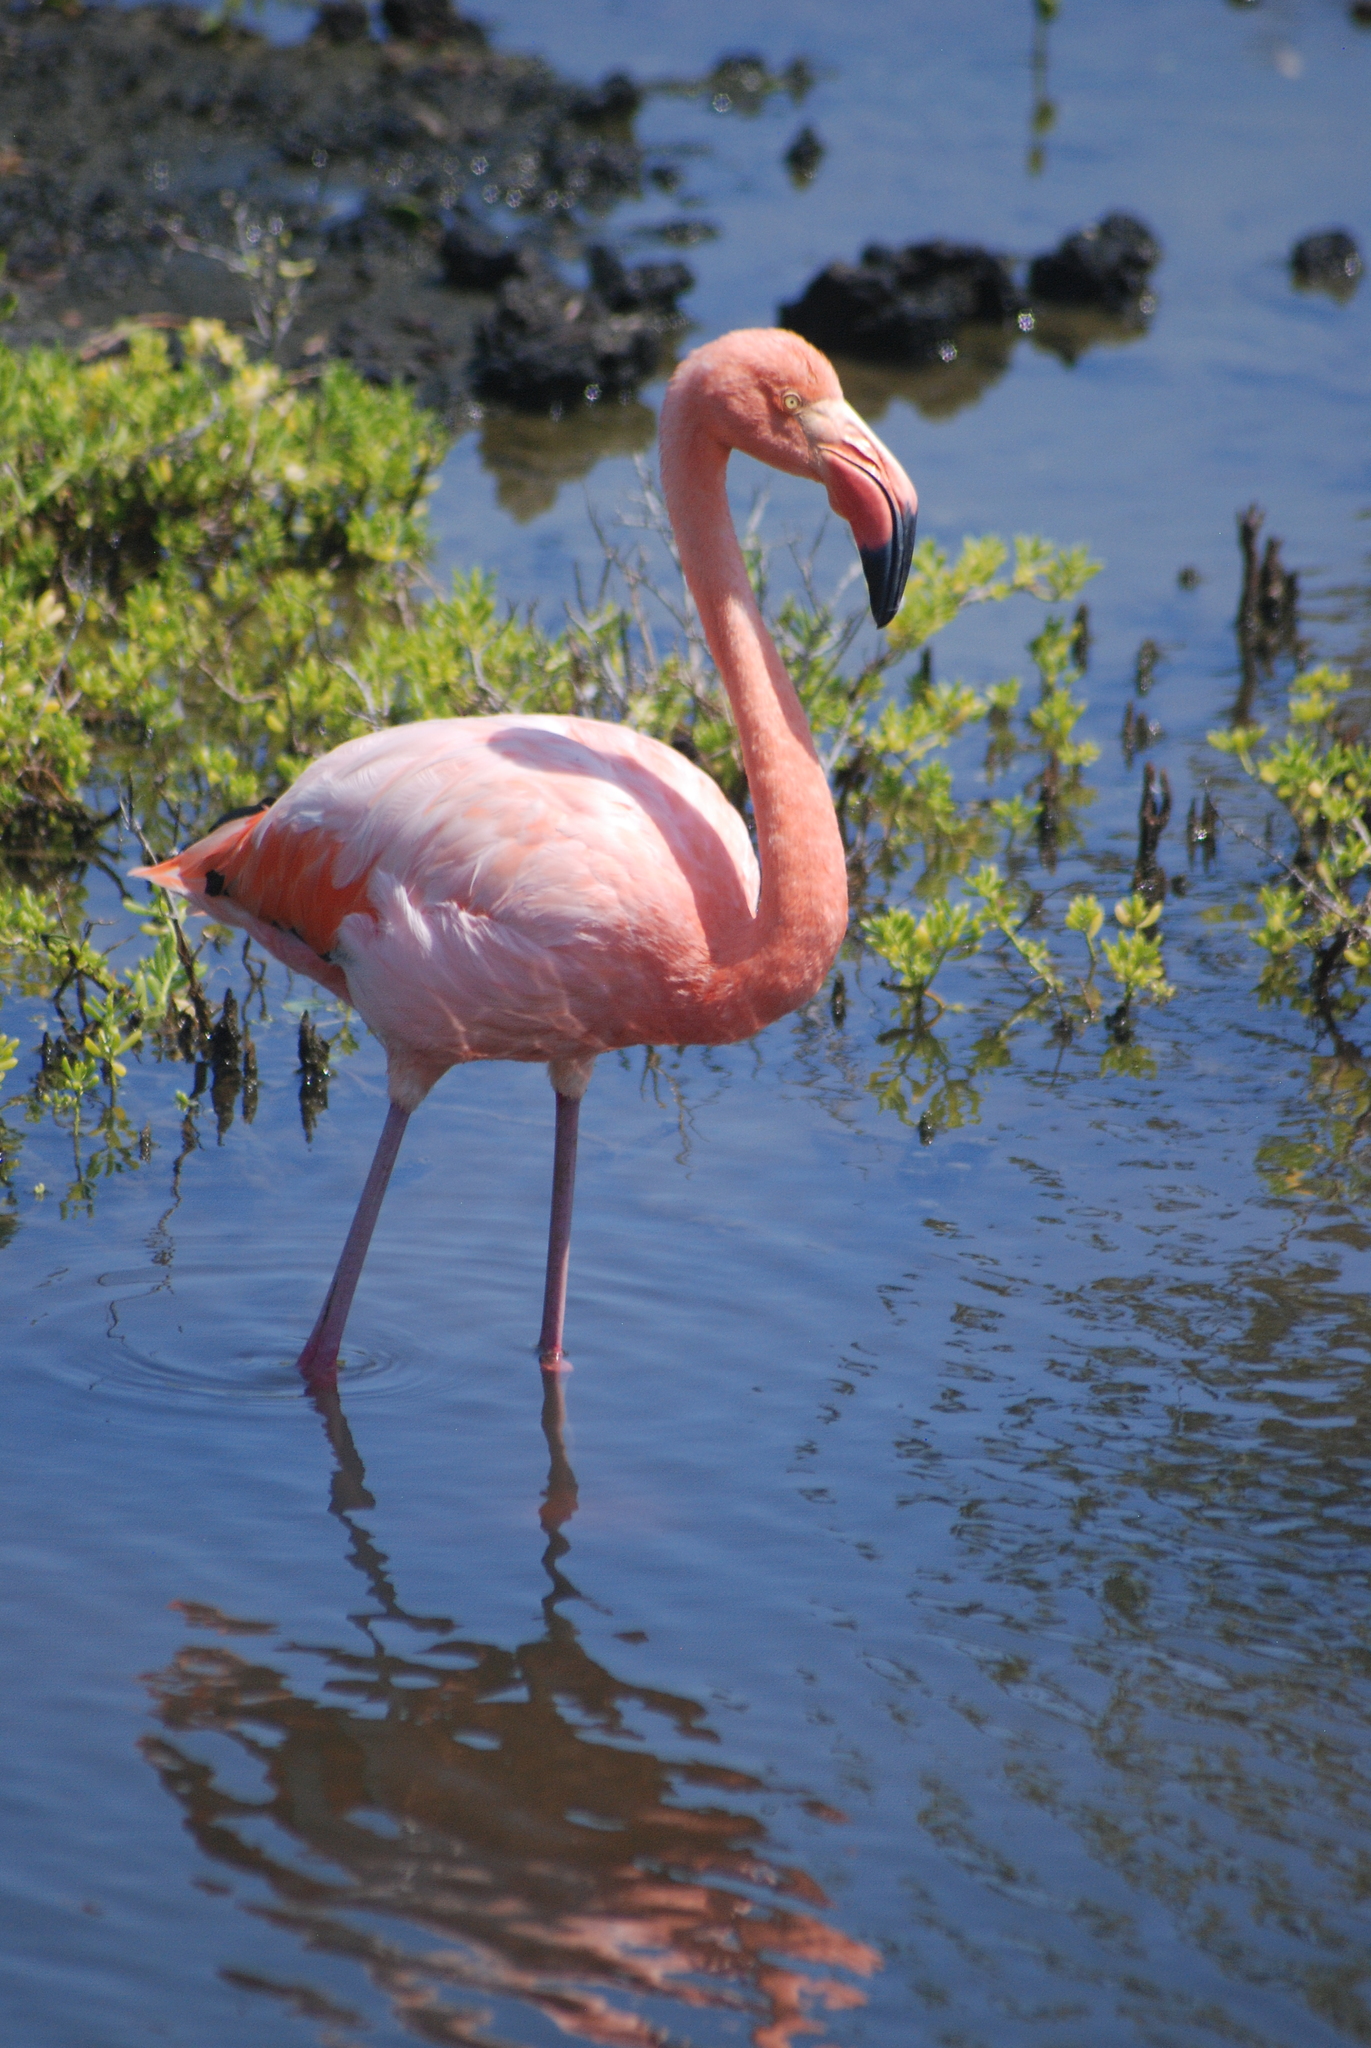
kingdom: Animalia
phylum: Chordata
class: Aves
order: Phoenicopteriformes
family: Phoenicopteridae
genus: Phoenicopterus
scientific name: Phoenicopterus ruber
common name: American flamingo
